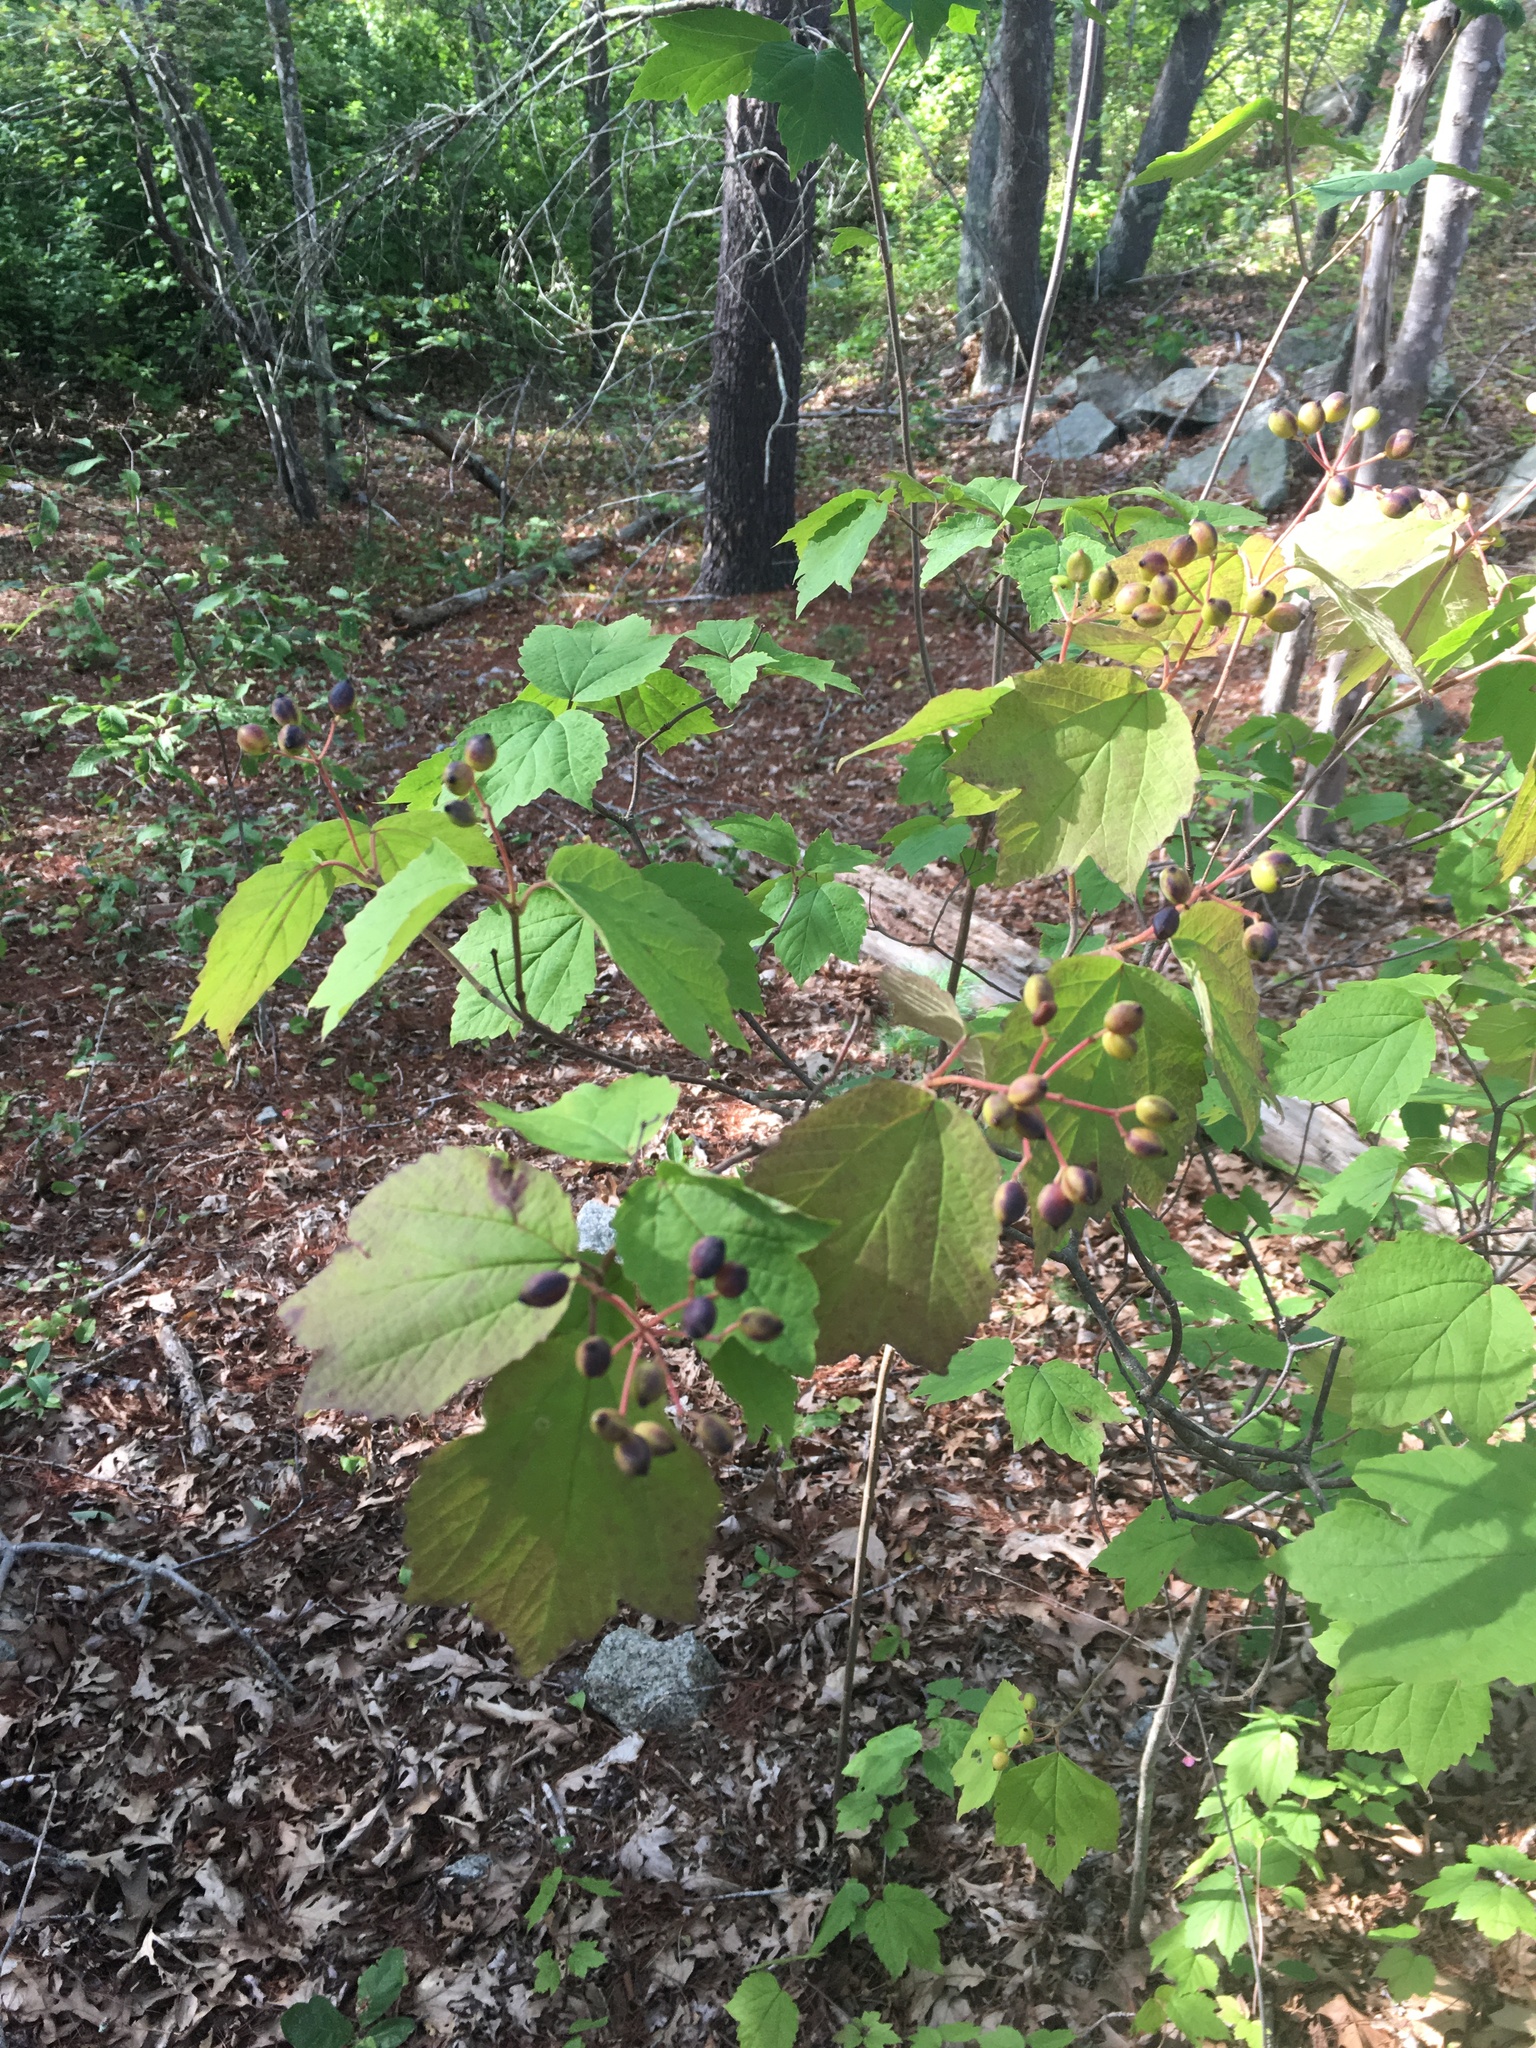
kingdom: Plantae
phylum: Tracheophyta
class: Magnoliopsida
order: Dipsacales
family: Viburnaceae
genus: Viburnum
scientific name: Viburnum acerifolium
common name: Dockmackie
